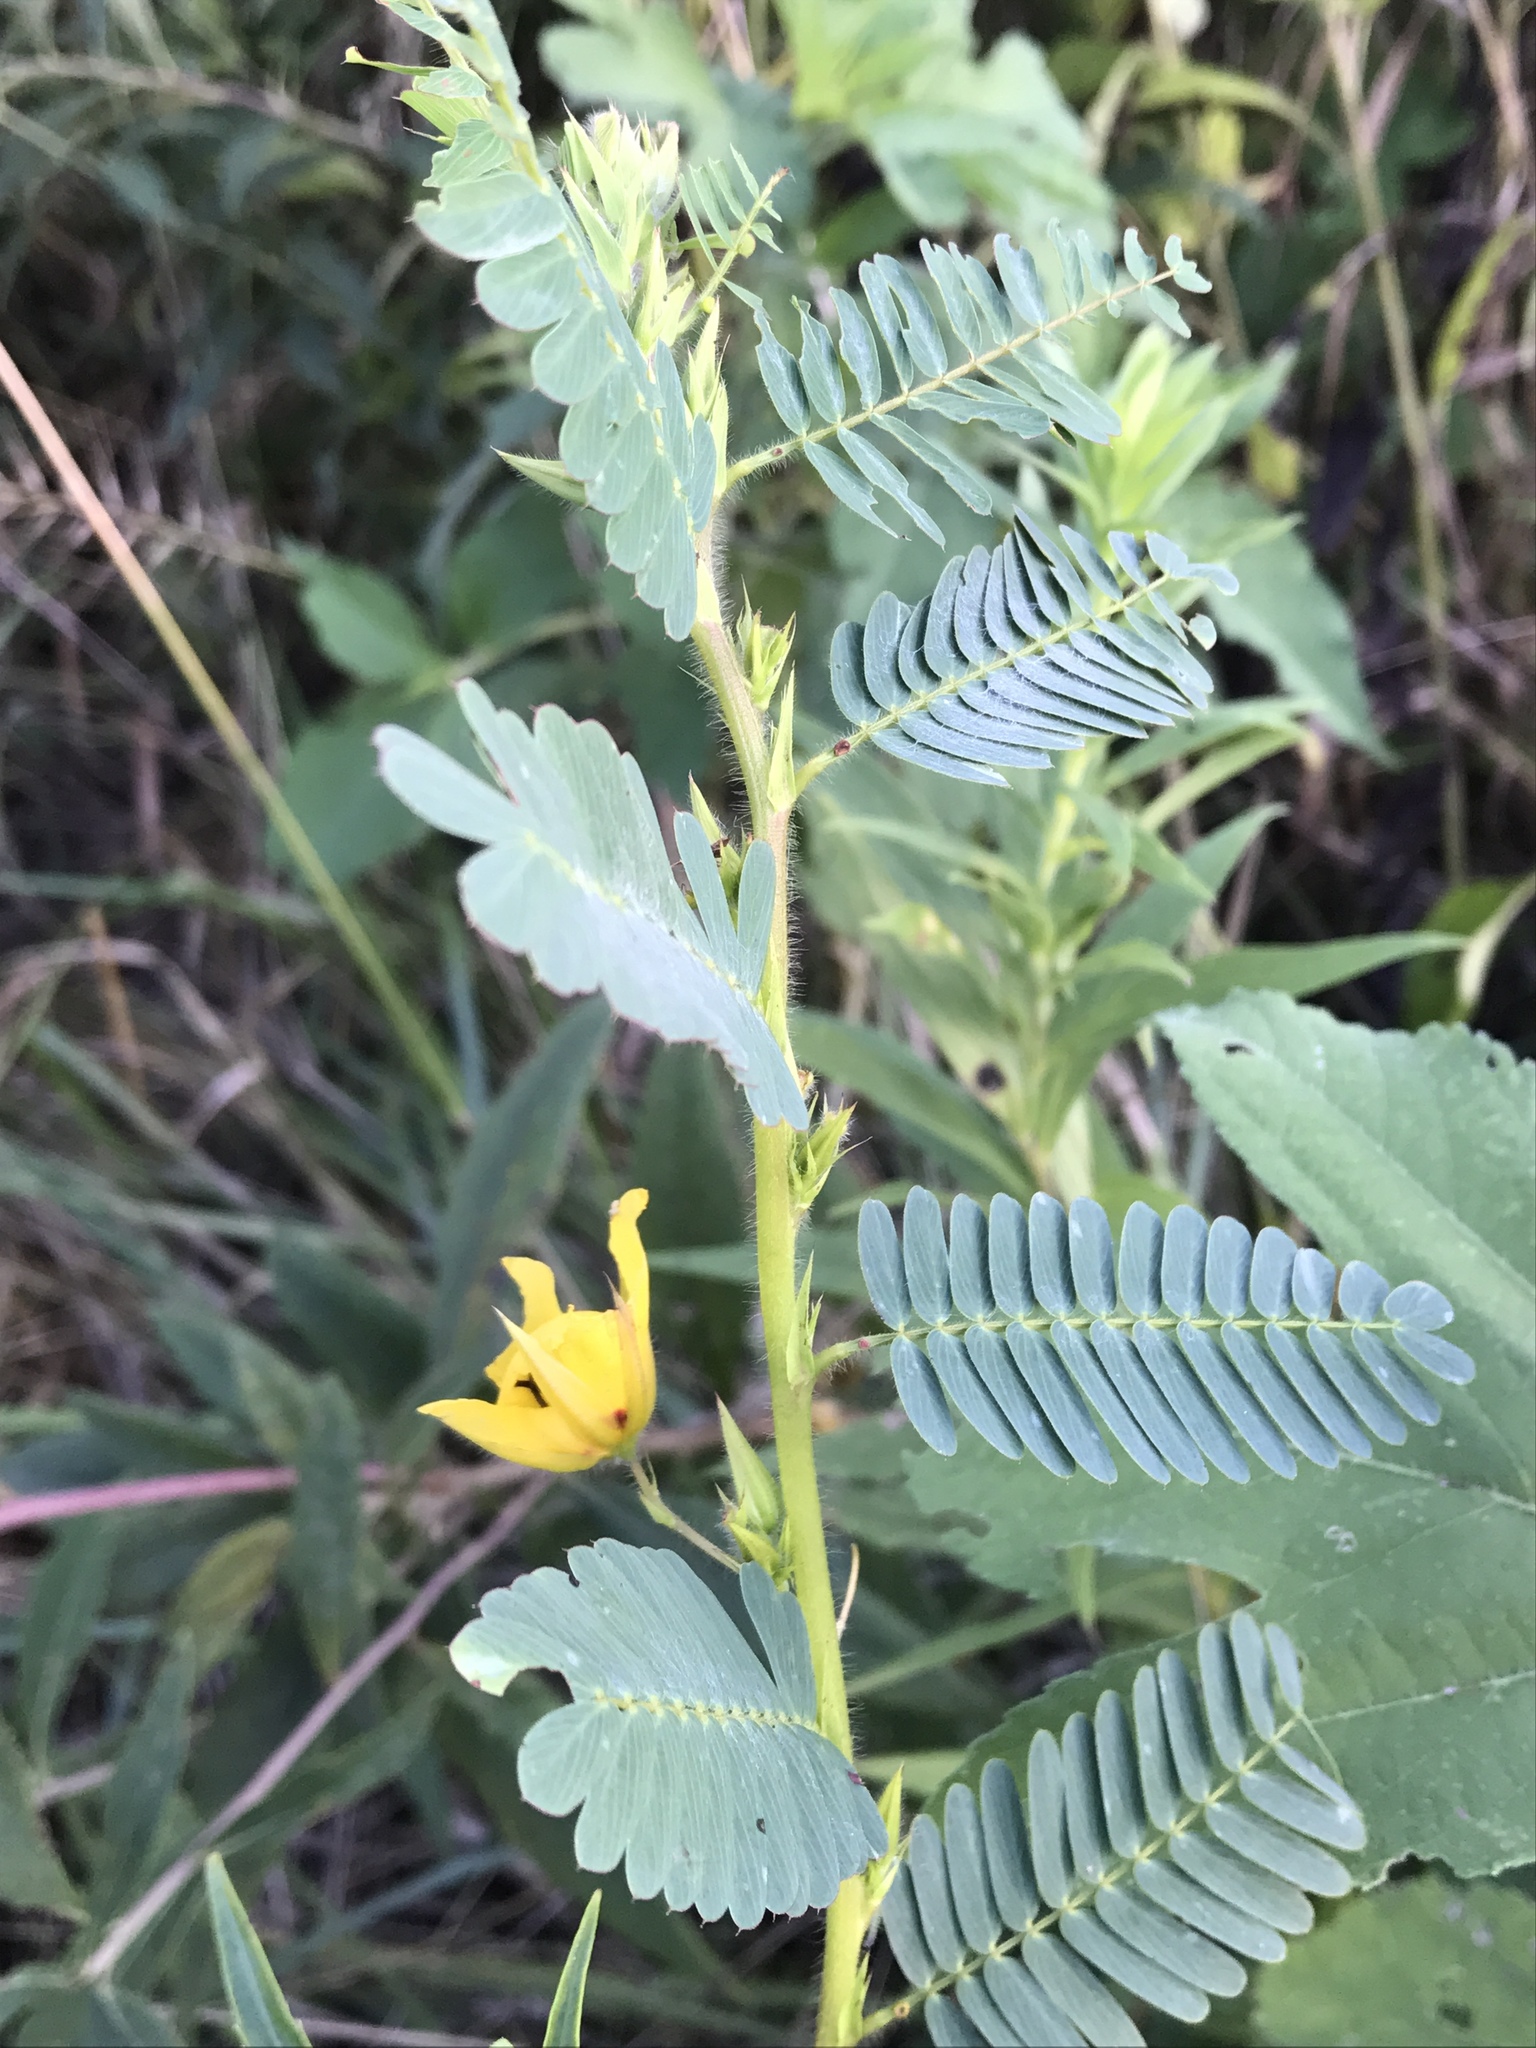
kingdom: Plantae
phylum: Tracheophyta
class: Magnoliopsida
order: Fabales
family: Fabaceae
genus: Chamaecrista
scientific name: Chamaecrista fasciculata
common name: Golden cassia
